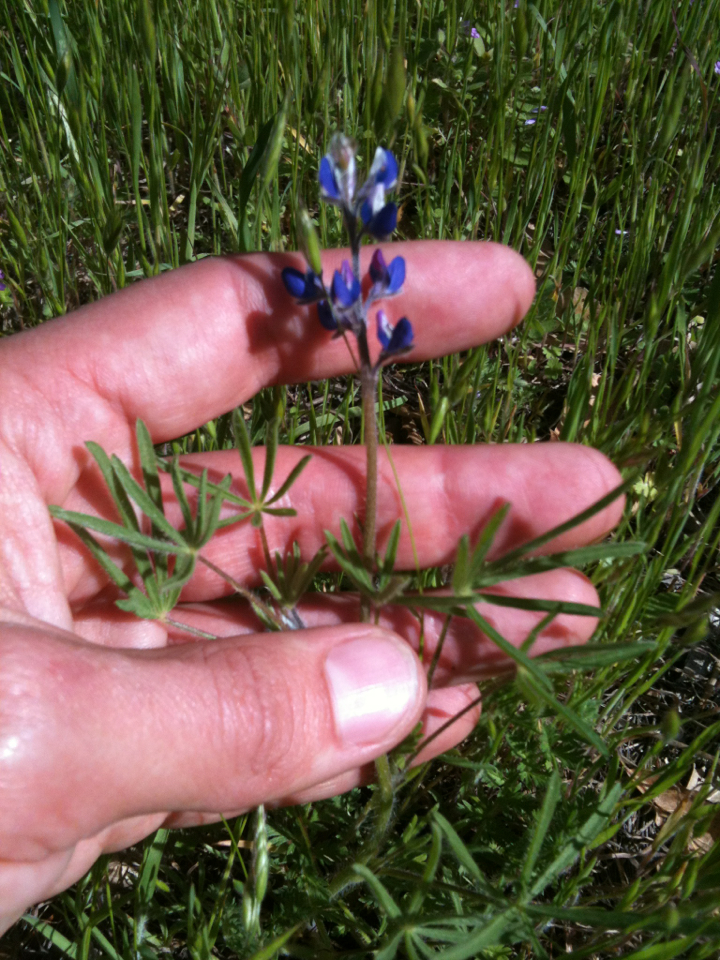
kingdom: Plantae
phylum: Tracheophyta
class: Magnoliopsida
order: Fabales
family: Fabaceae
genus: Lupinus
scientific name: Lupinus bicolor
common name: Miniature lupine
